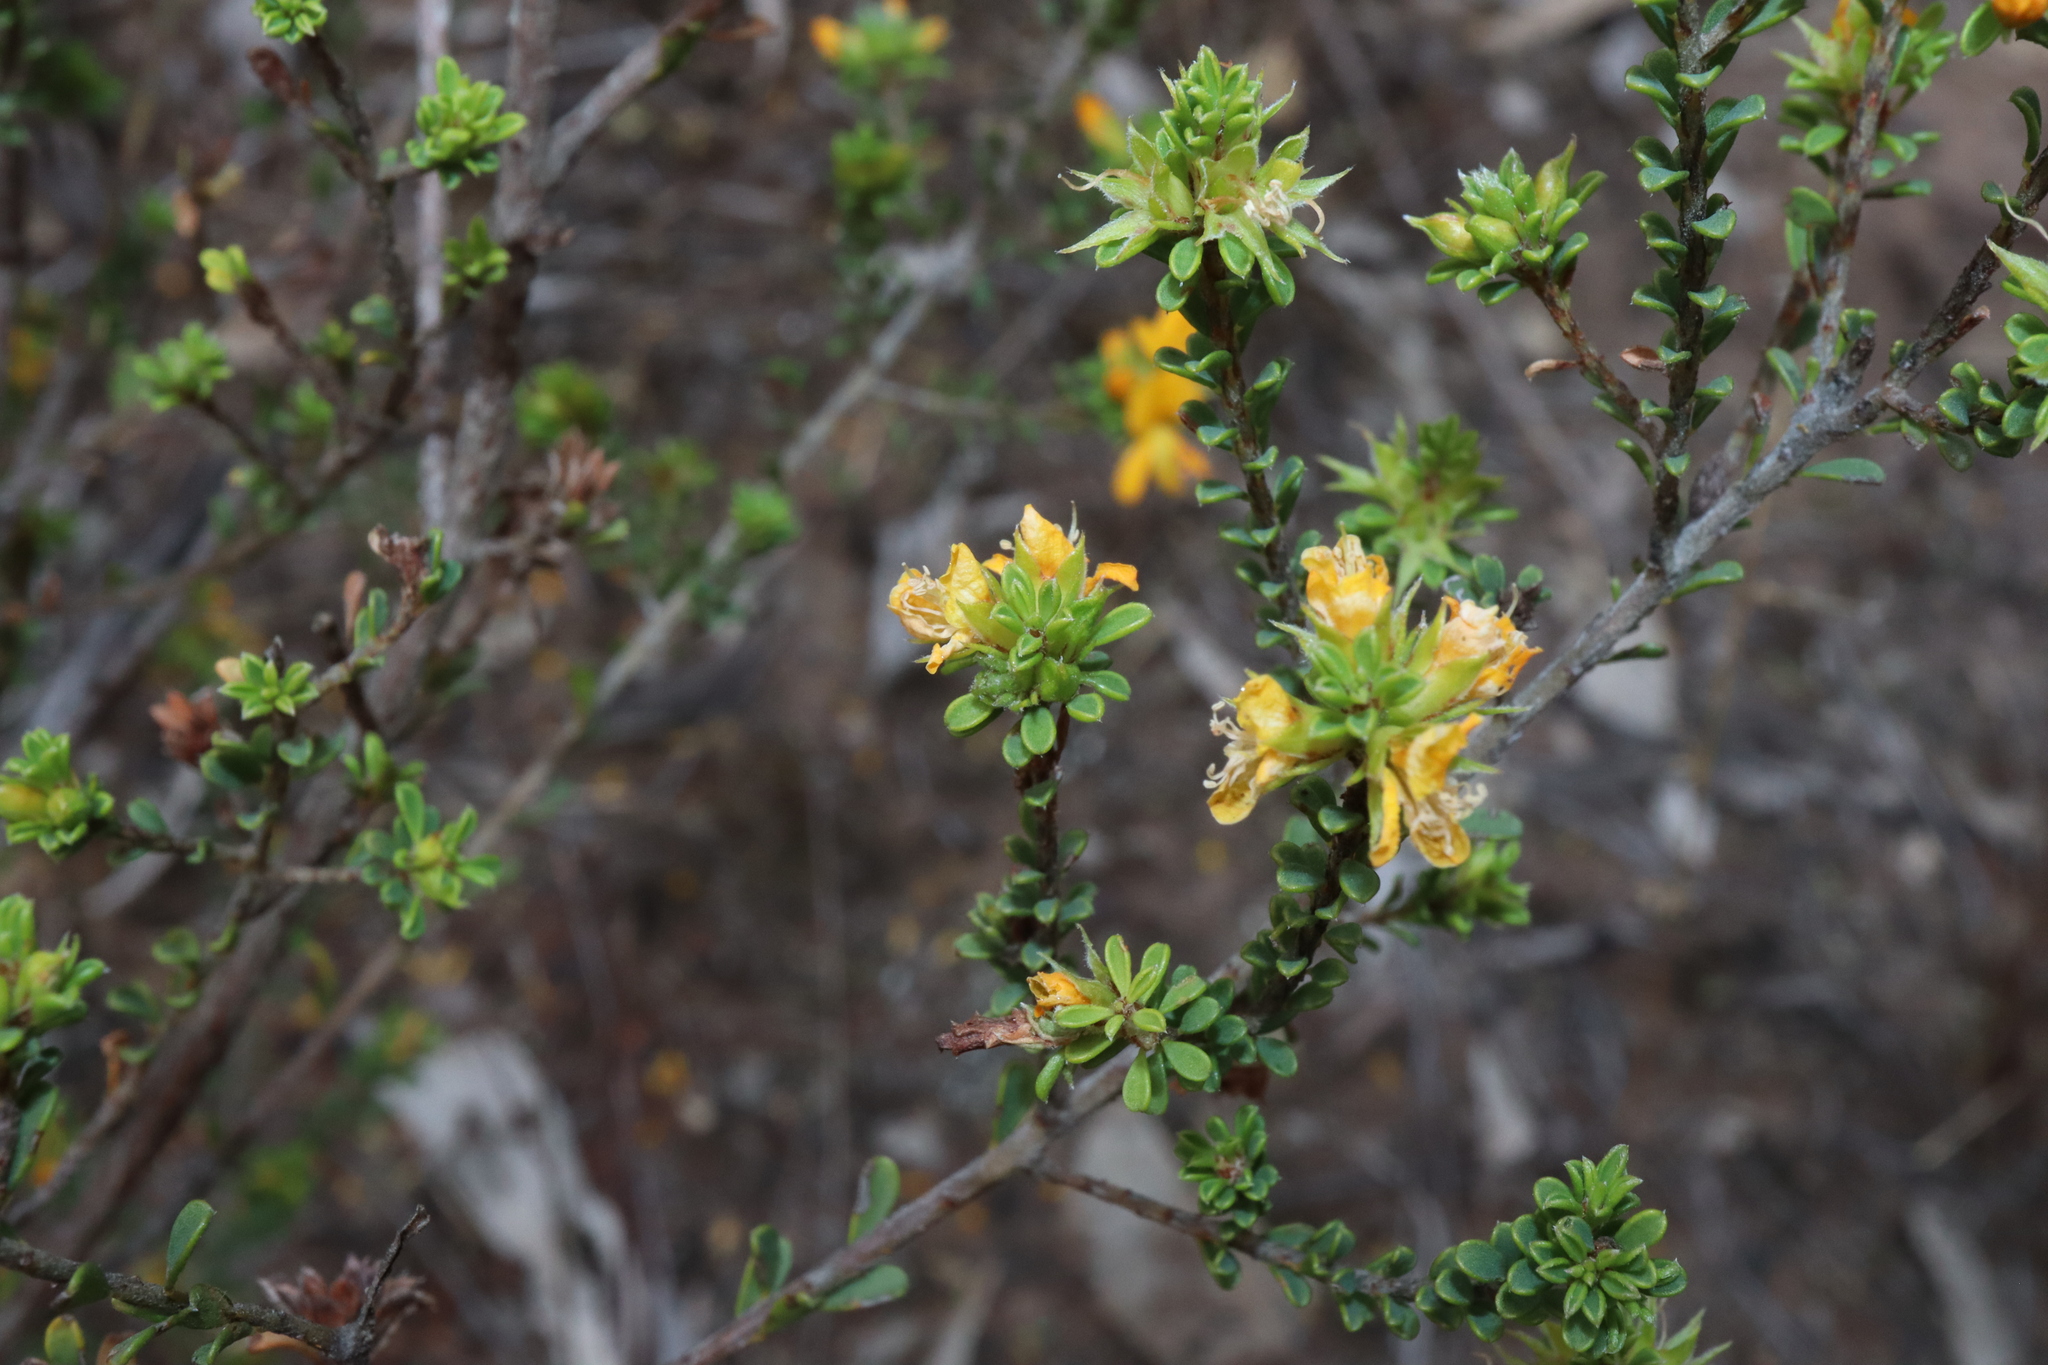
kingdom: Plantae
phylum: Tracheophyta
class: Magnoliopsida
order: Fabales
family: Fabaceae
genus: Pultenaea
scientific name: Pultenaea parviflora
